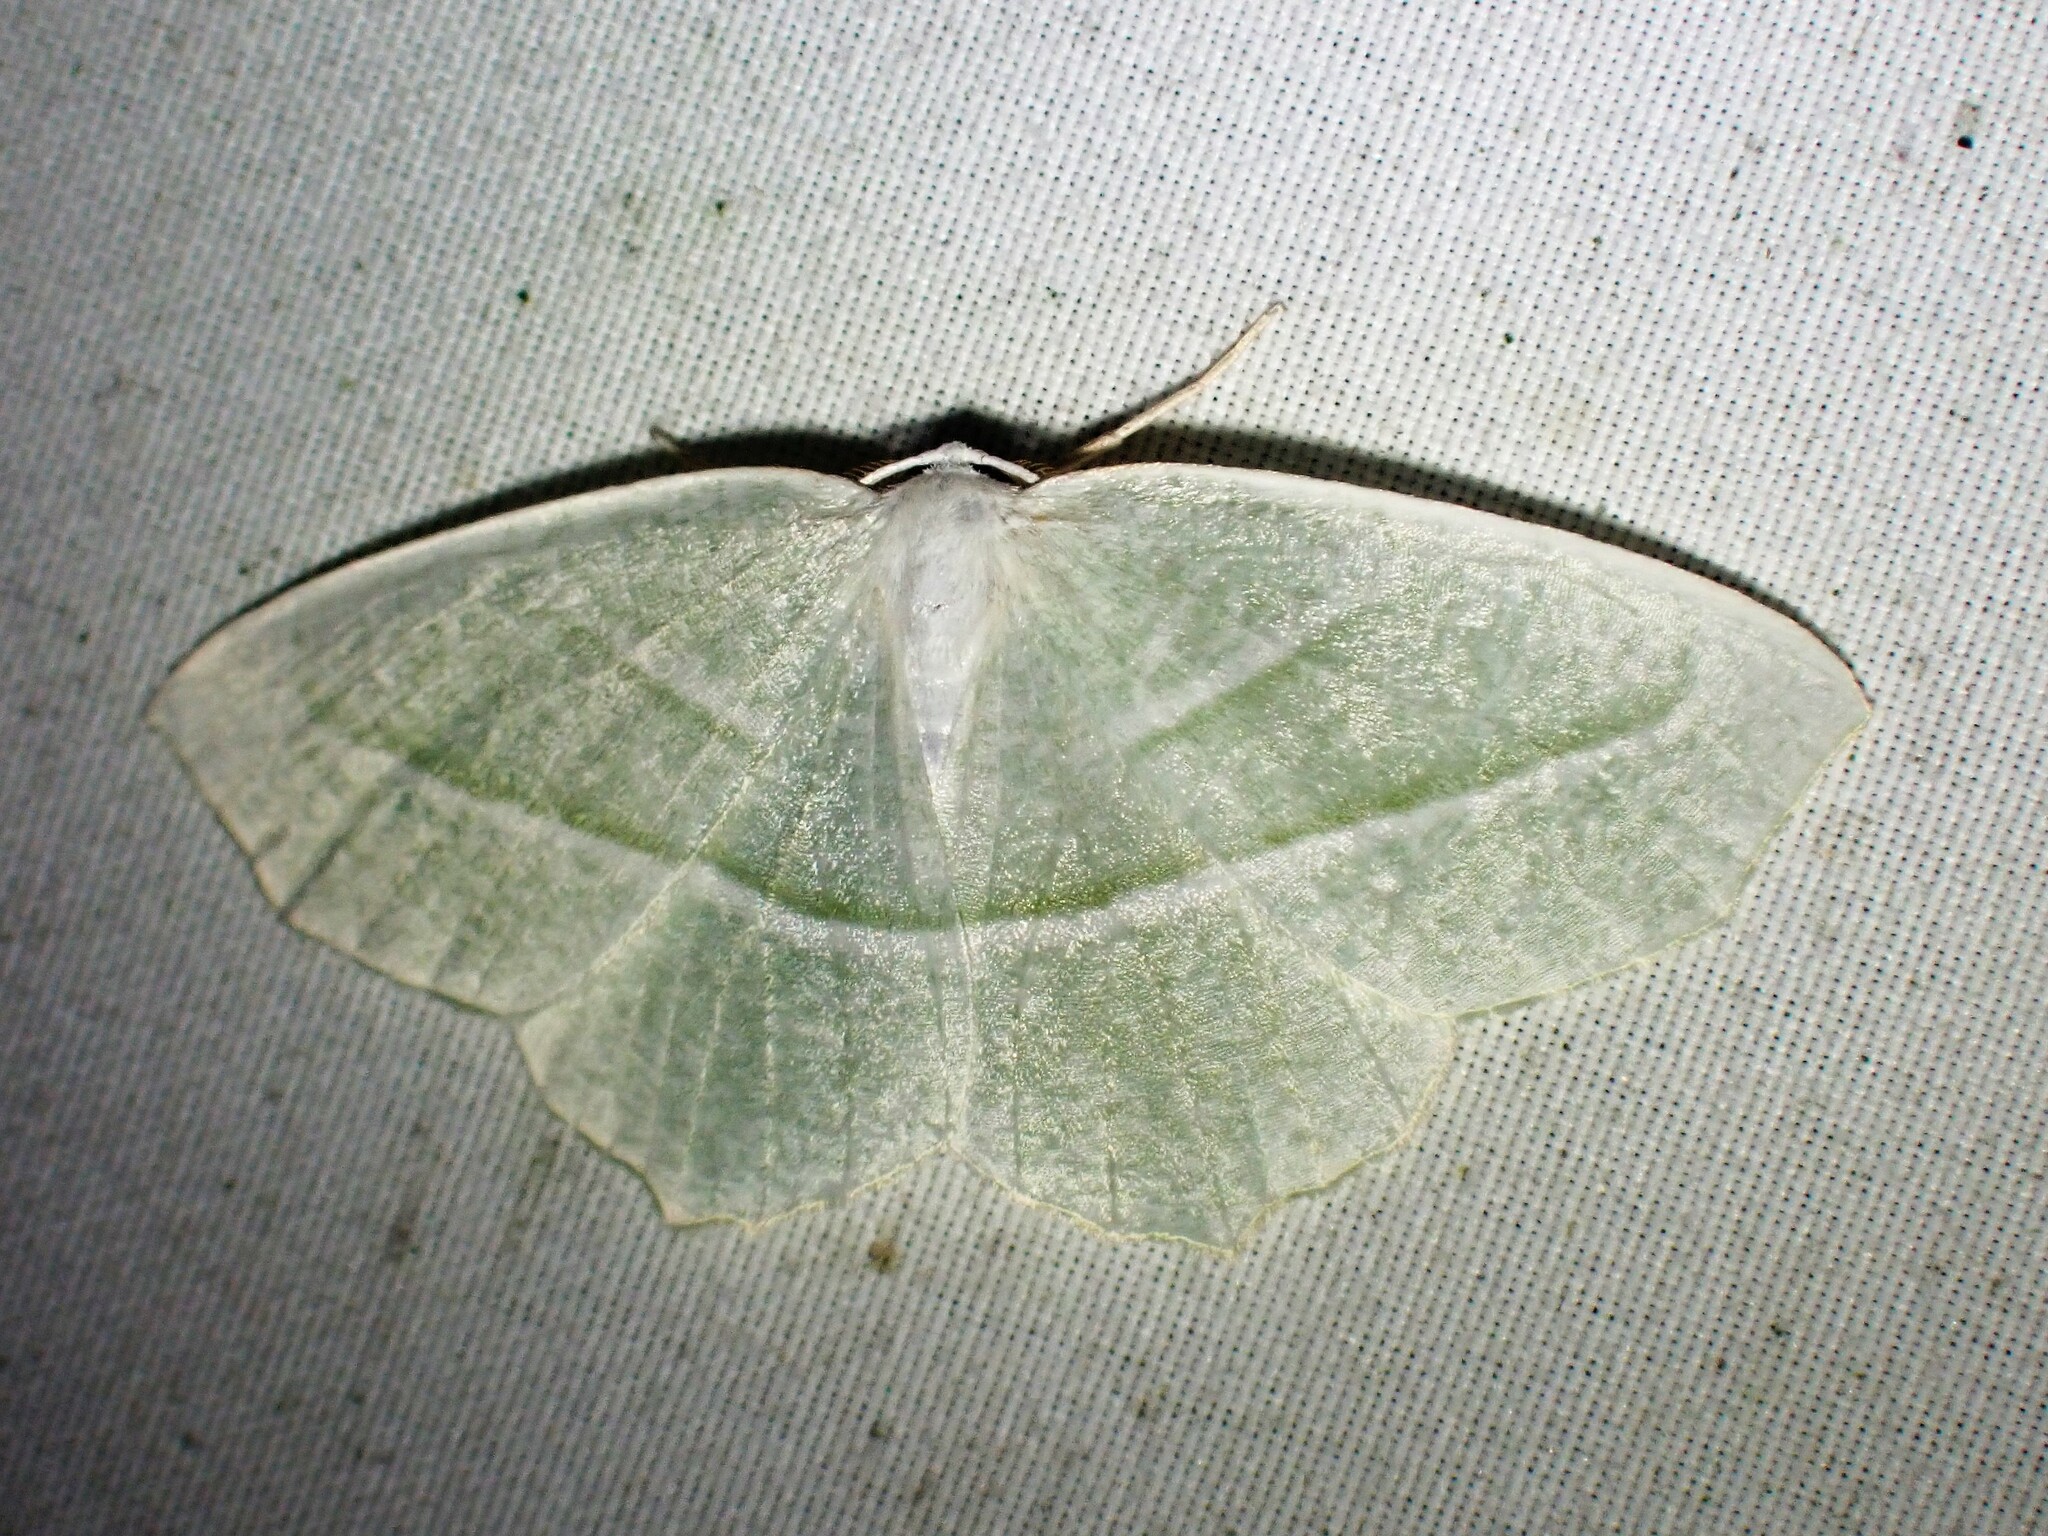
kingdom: Animalia
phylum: Arthropoda
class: Insecta
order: Lepidoptera
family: Geometridae
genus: Campaea
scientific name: Campaea perlata
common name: Fringed looper
